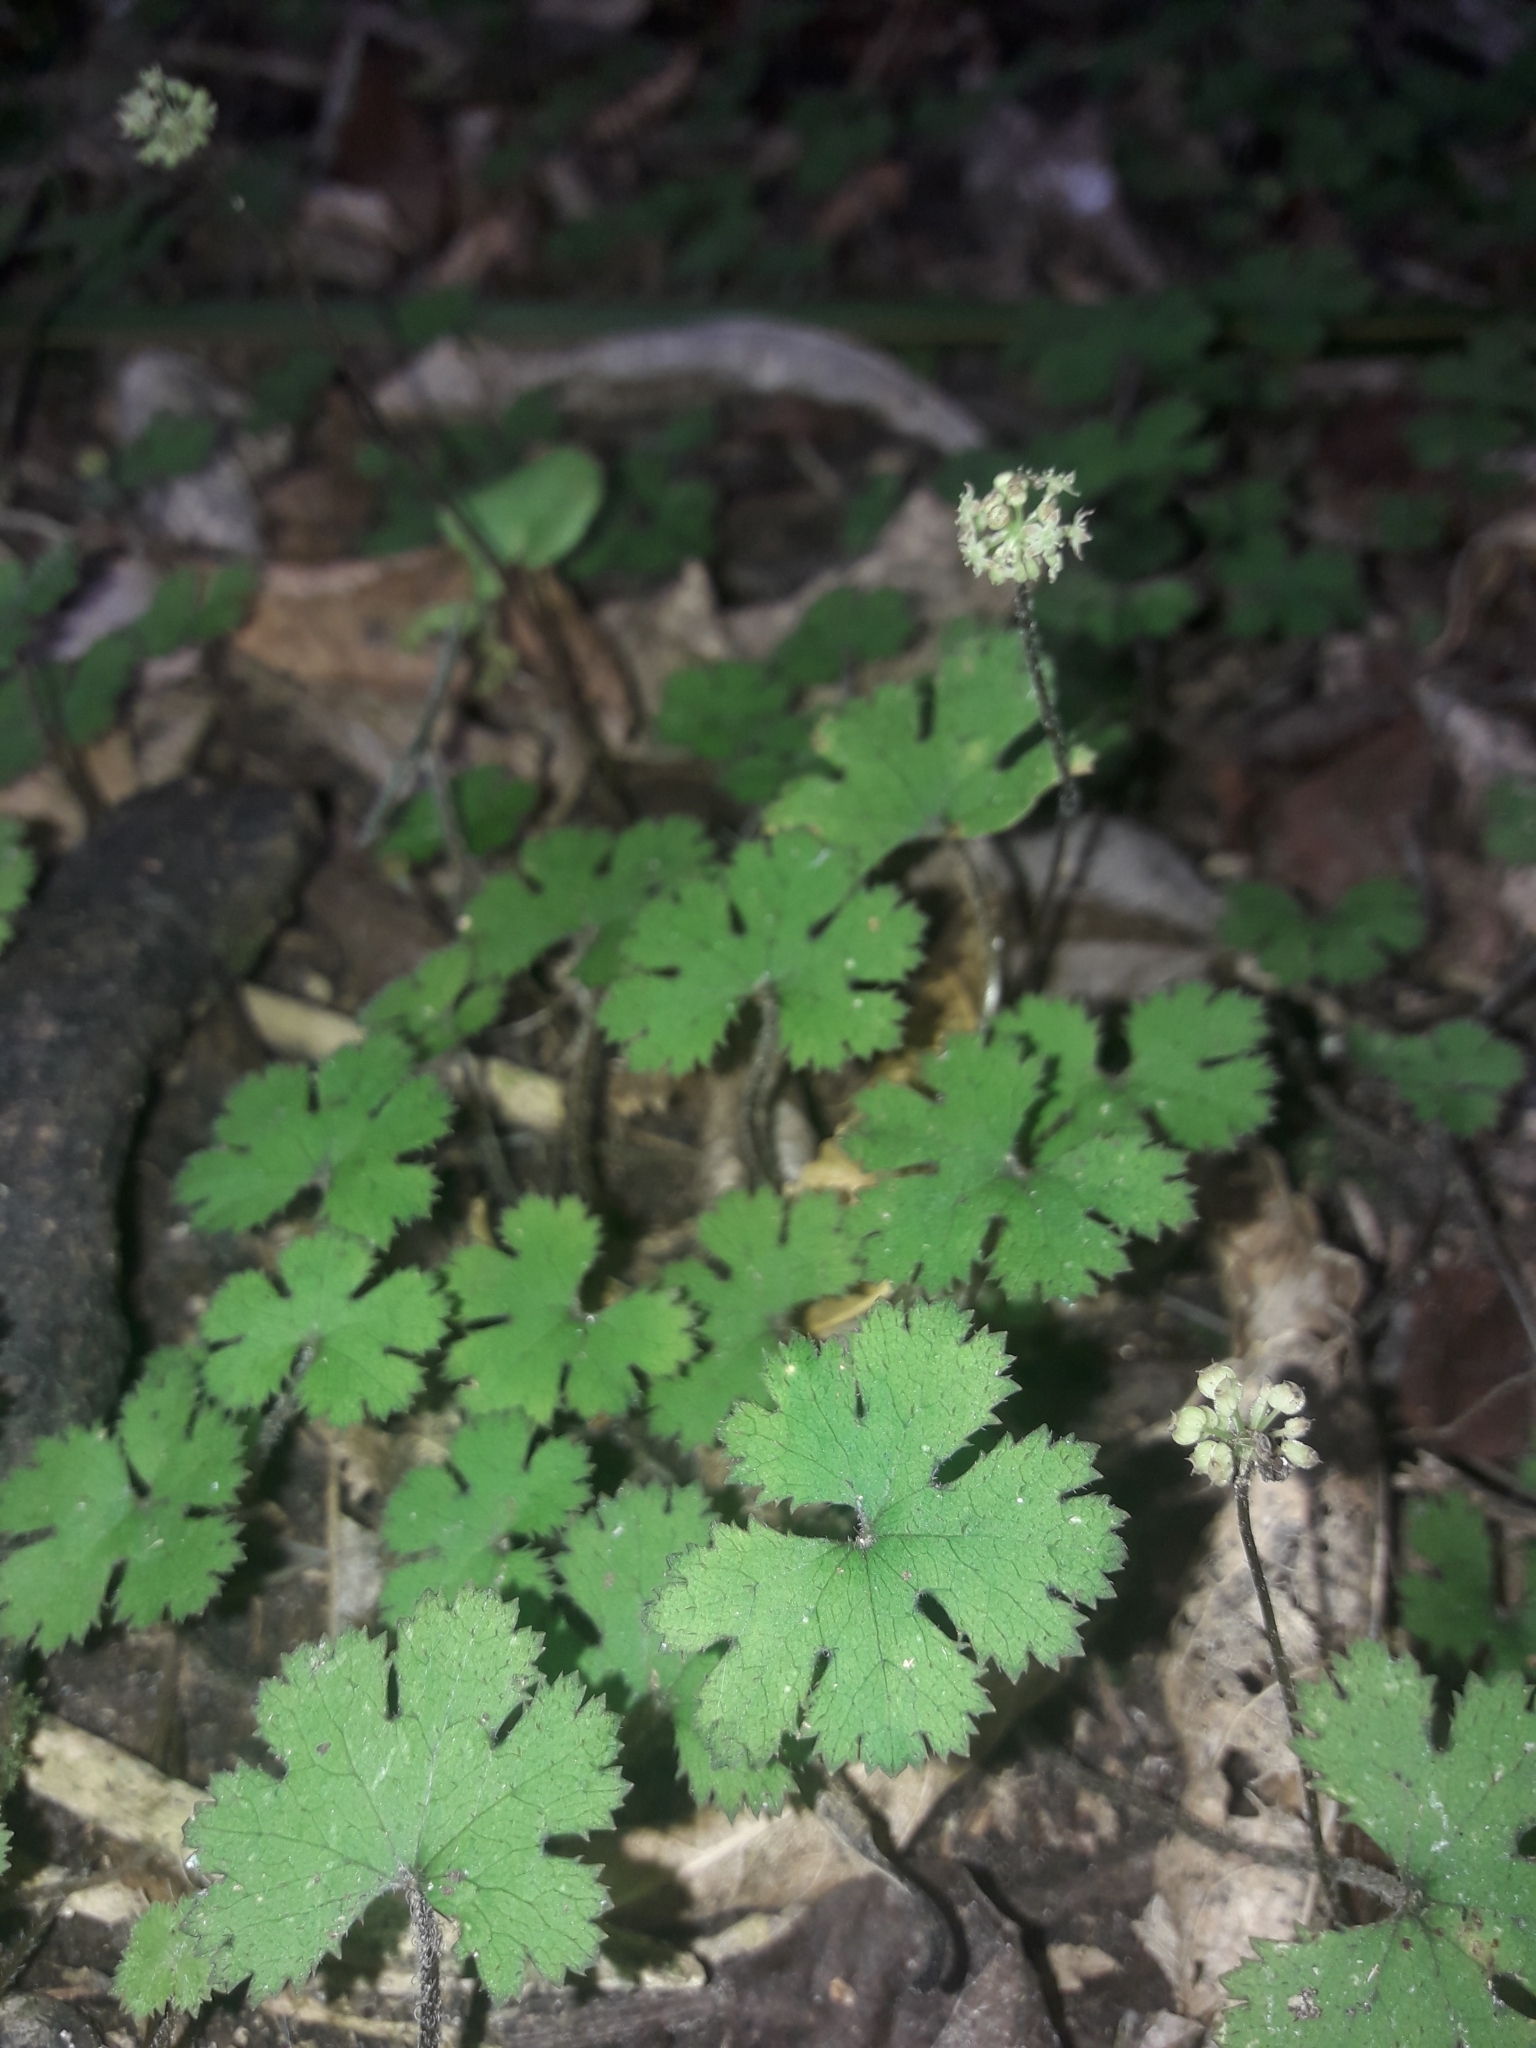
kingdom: Plantae
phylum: Tracheophyta
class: Magnoliopsida
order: Apiales
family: Araliaceae
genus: Hydrocotyle
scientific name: Hydrocotyle elongata
